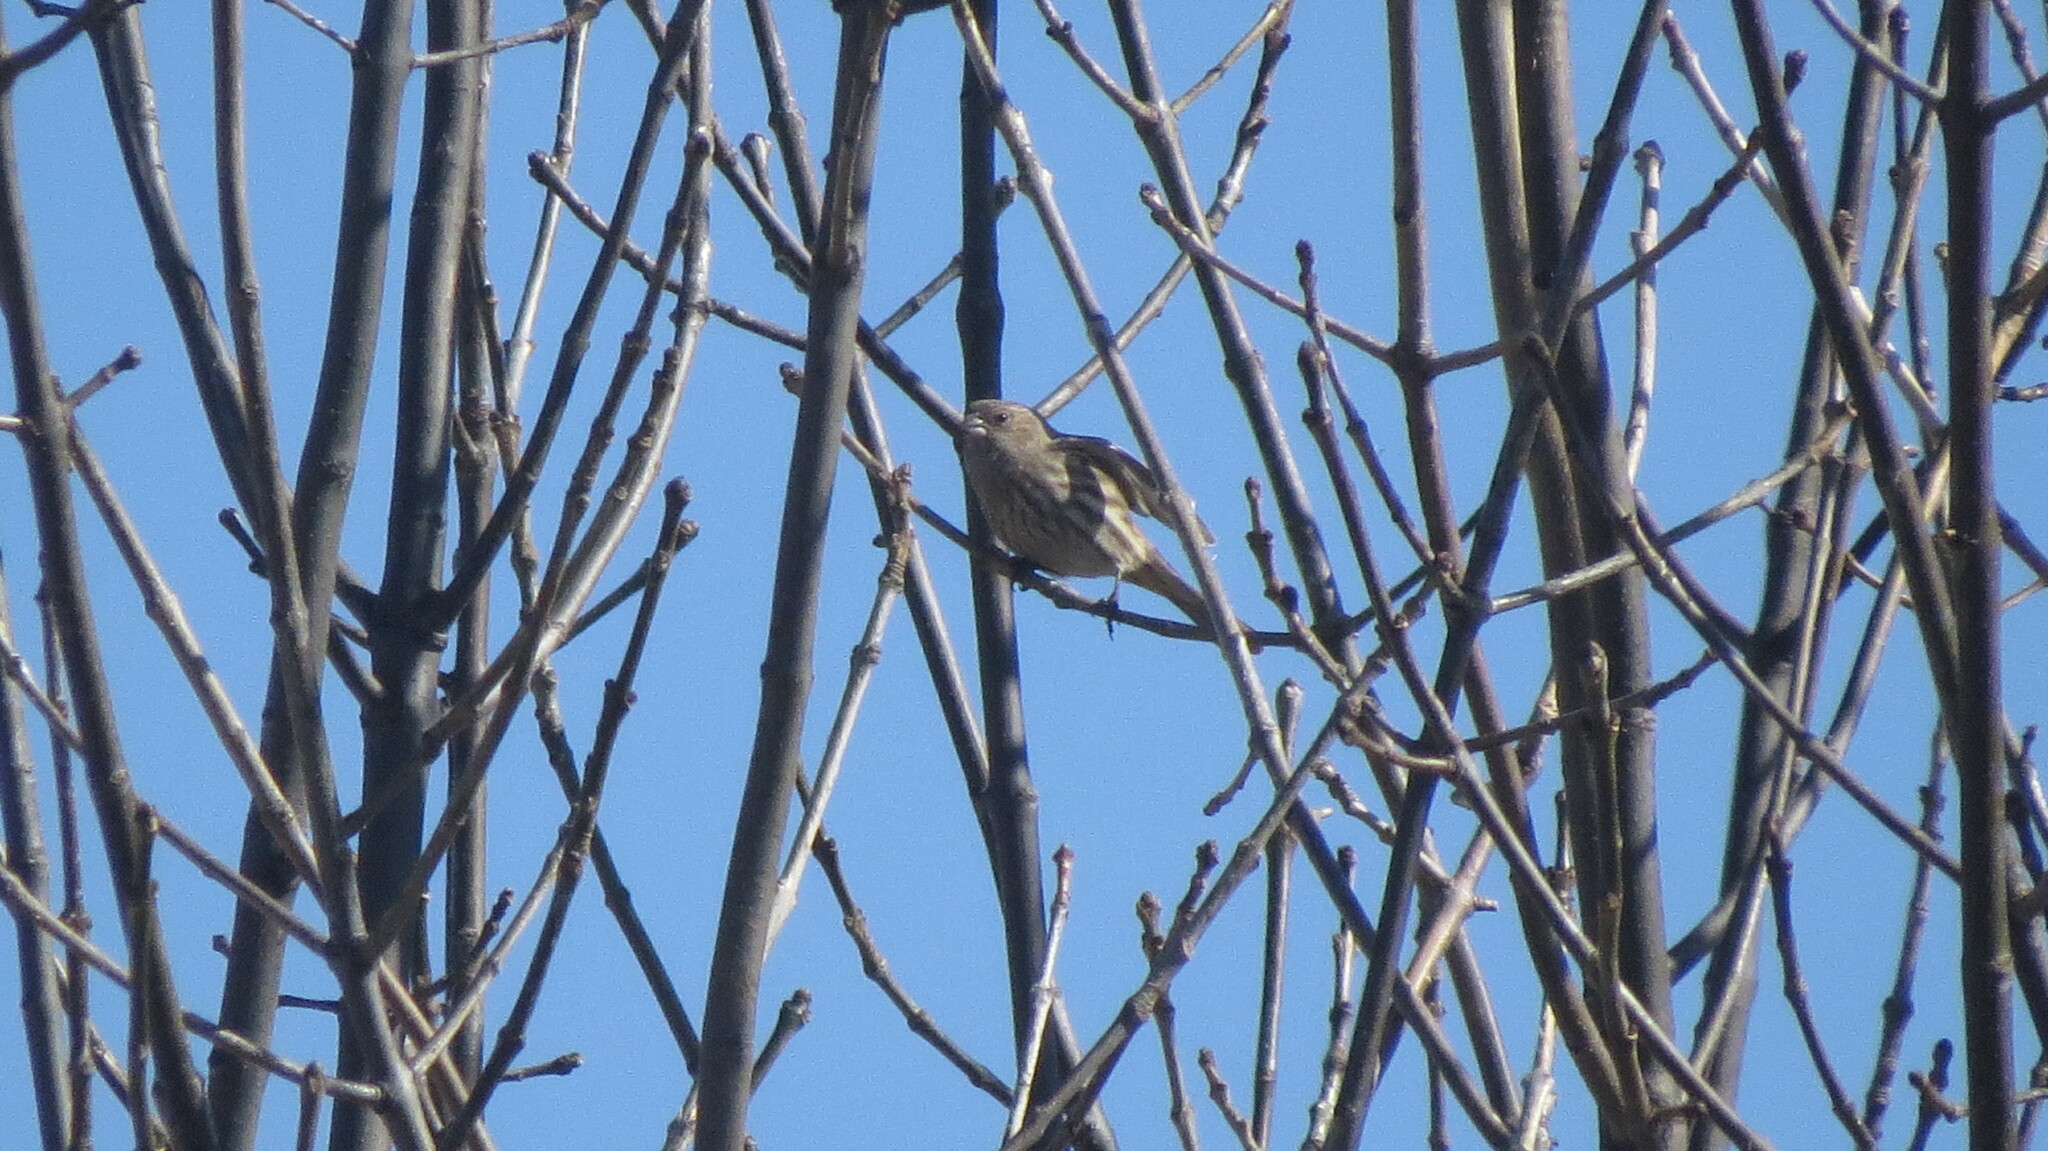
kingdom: Animalia
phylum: Chordata
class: Aves
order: Passeriformes
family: Fringillidae
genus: Haemorhous
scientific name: Haemorhous mexicanus
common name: House finch
